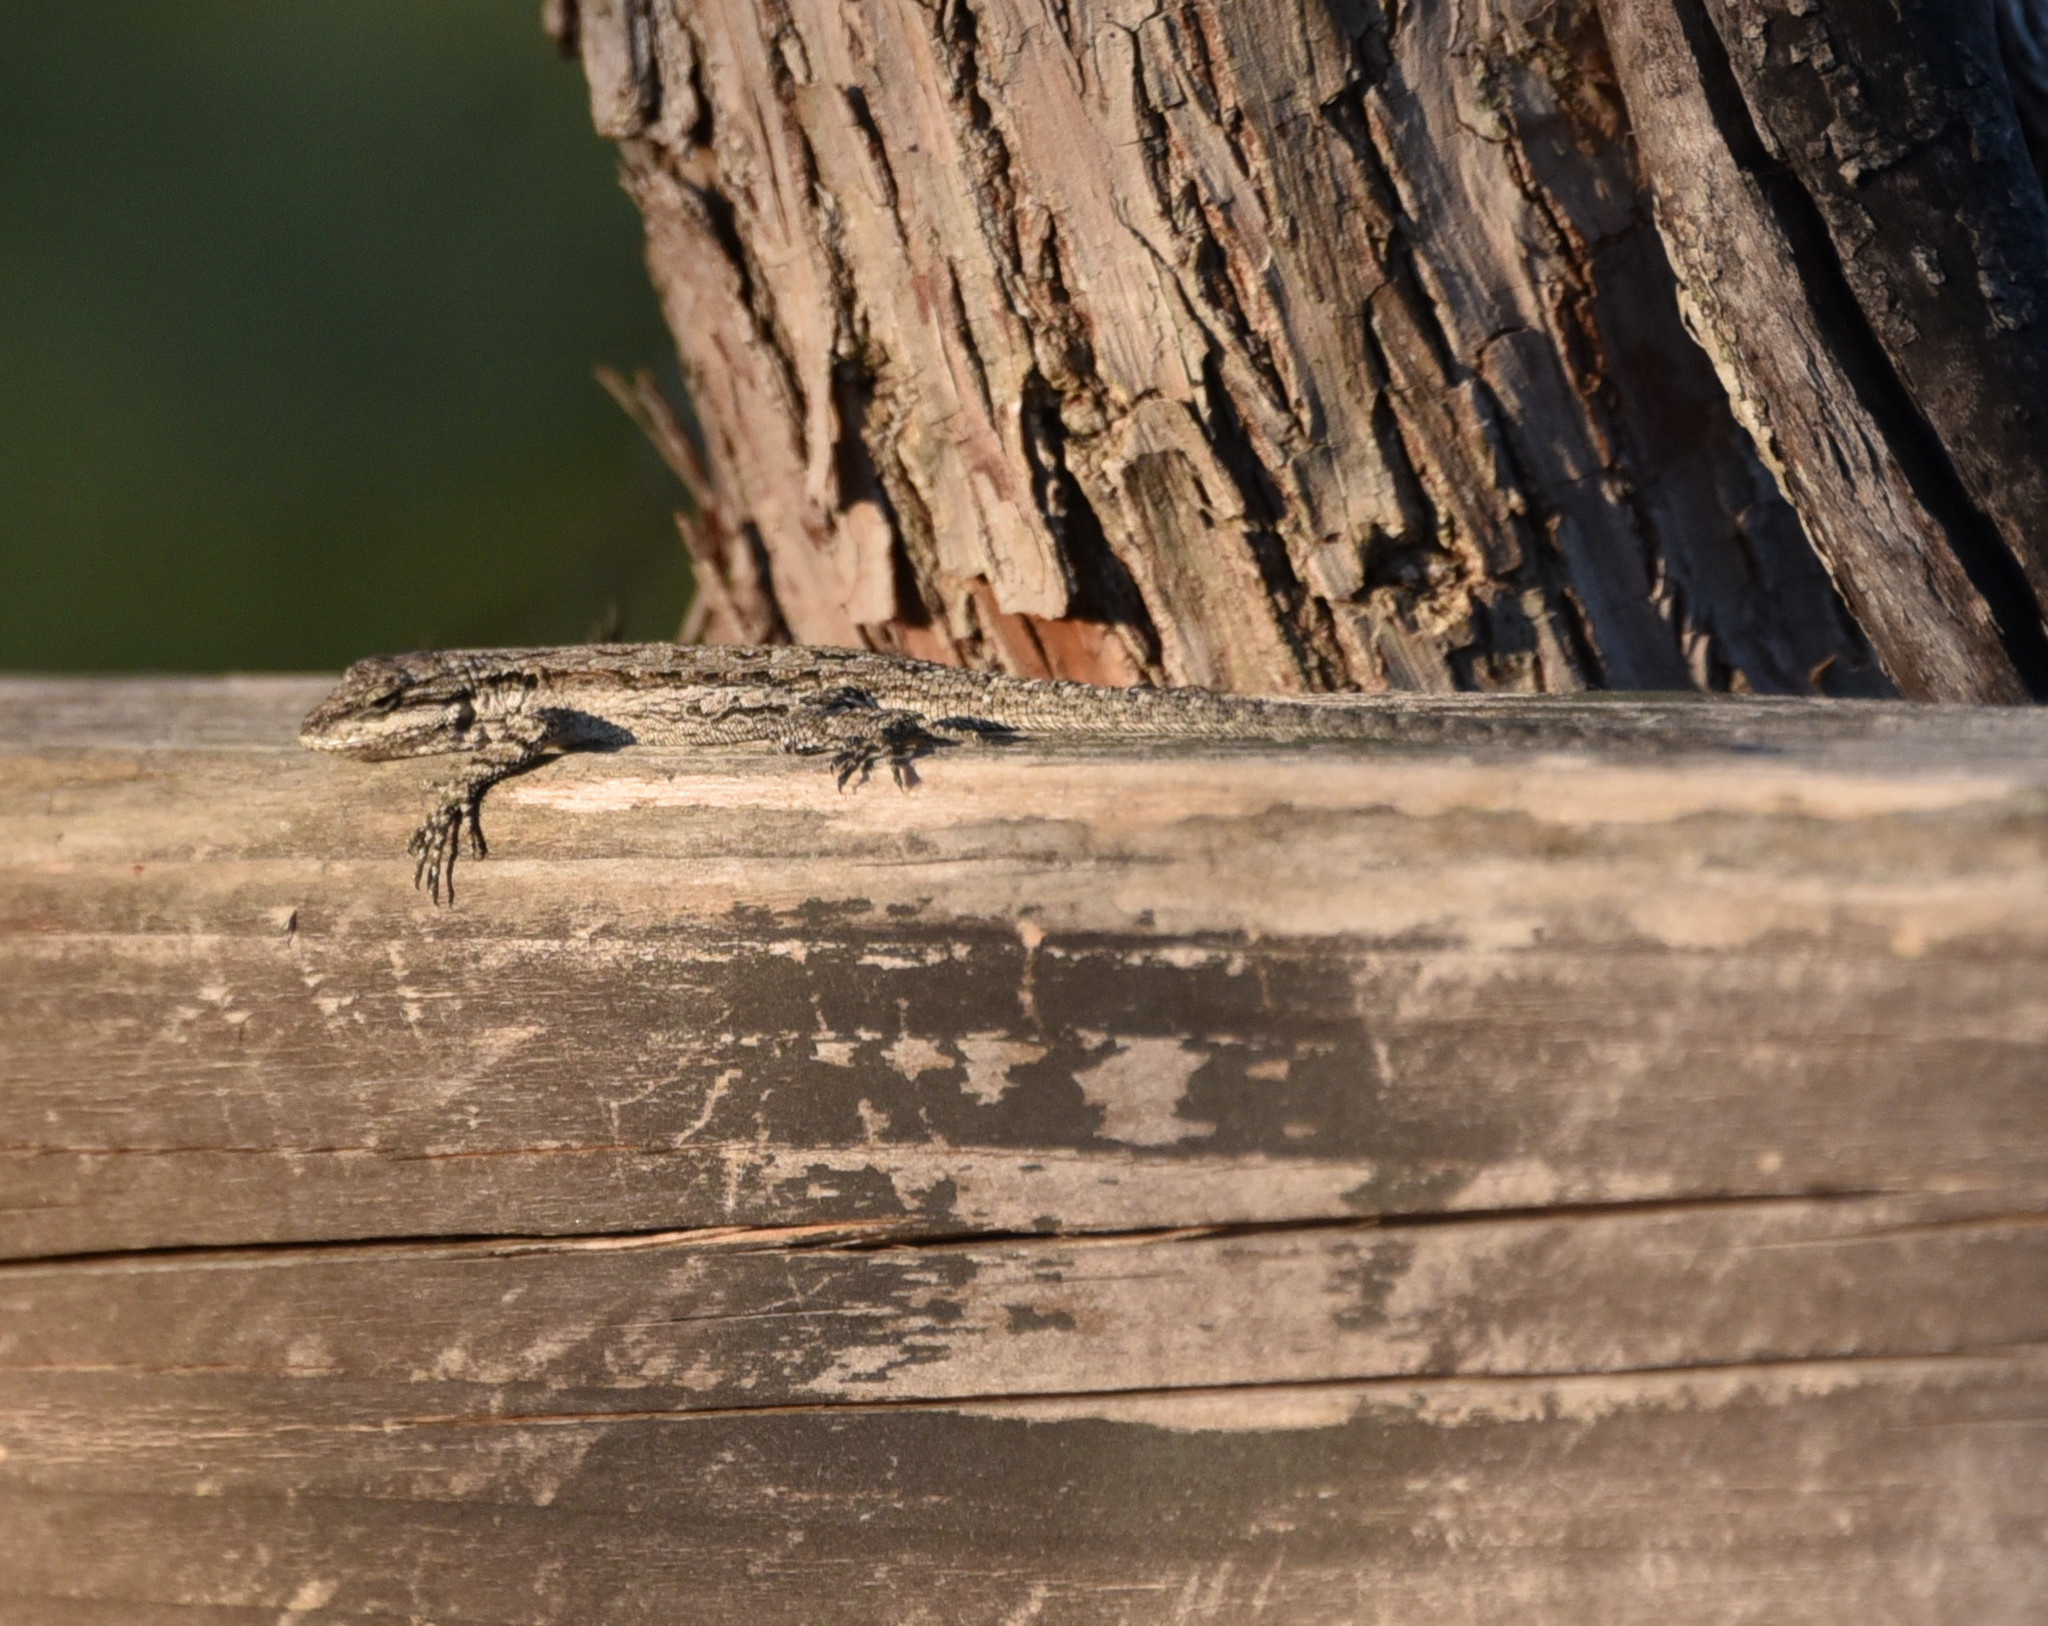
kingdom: Animalia
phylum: Chordata
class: Squamata
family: Phrynosomatidae
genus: Urosaurus
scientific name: Urosaurus ornatus
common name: Ornate tree lizard
